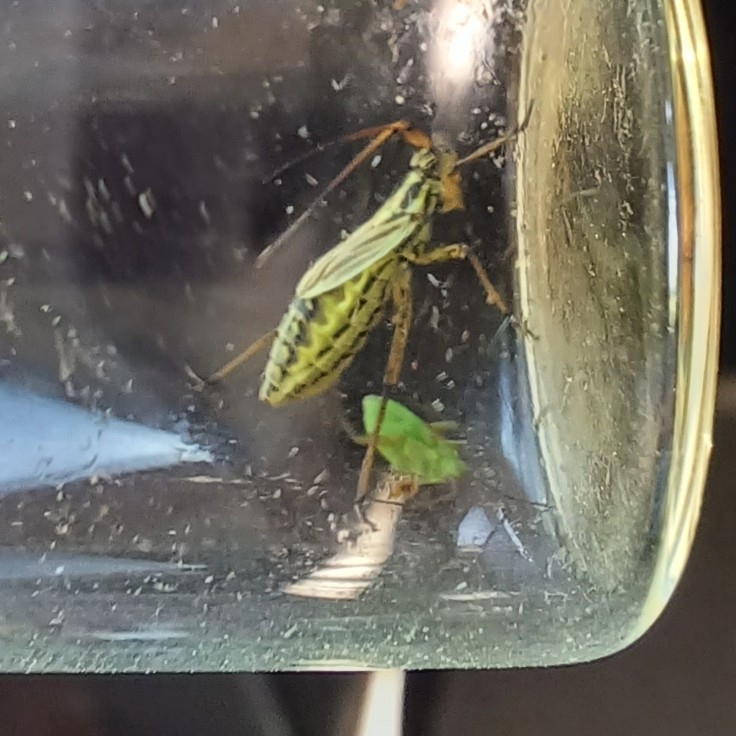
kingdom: Animalia
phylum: Arthropoda
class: Insecta
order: Hemiptera
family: Miridae
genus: Leptopterna
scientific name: Leptopterna dolabrata
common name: Meadow plant bug
